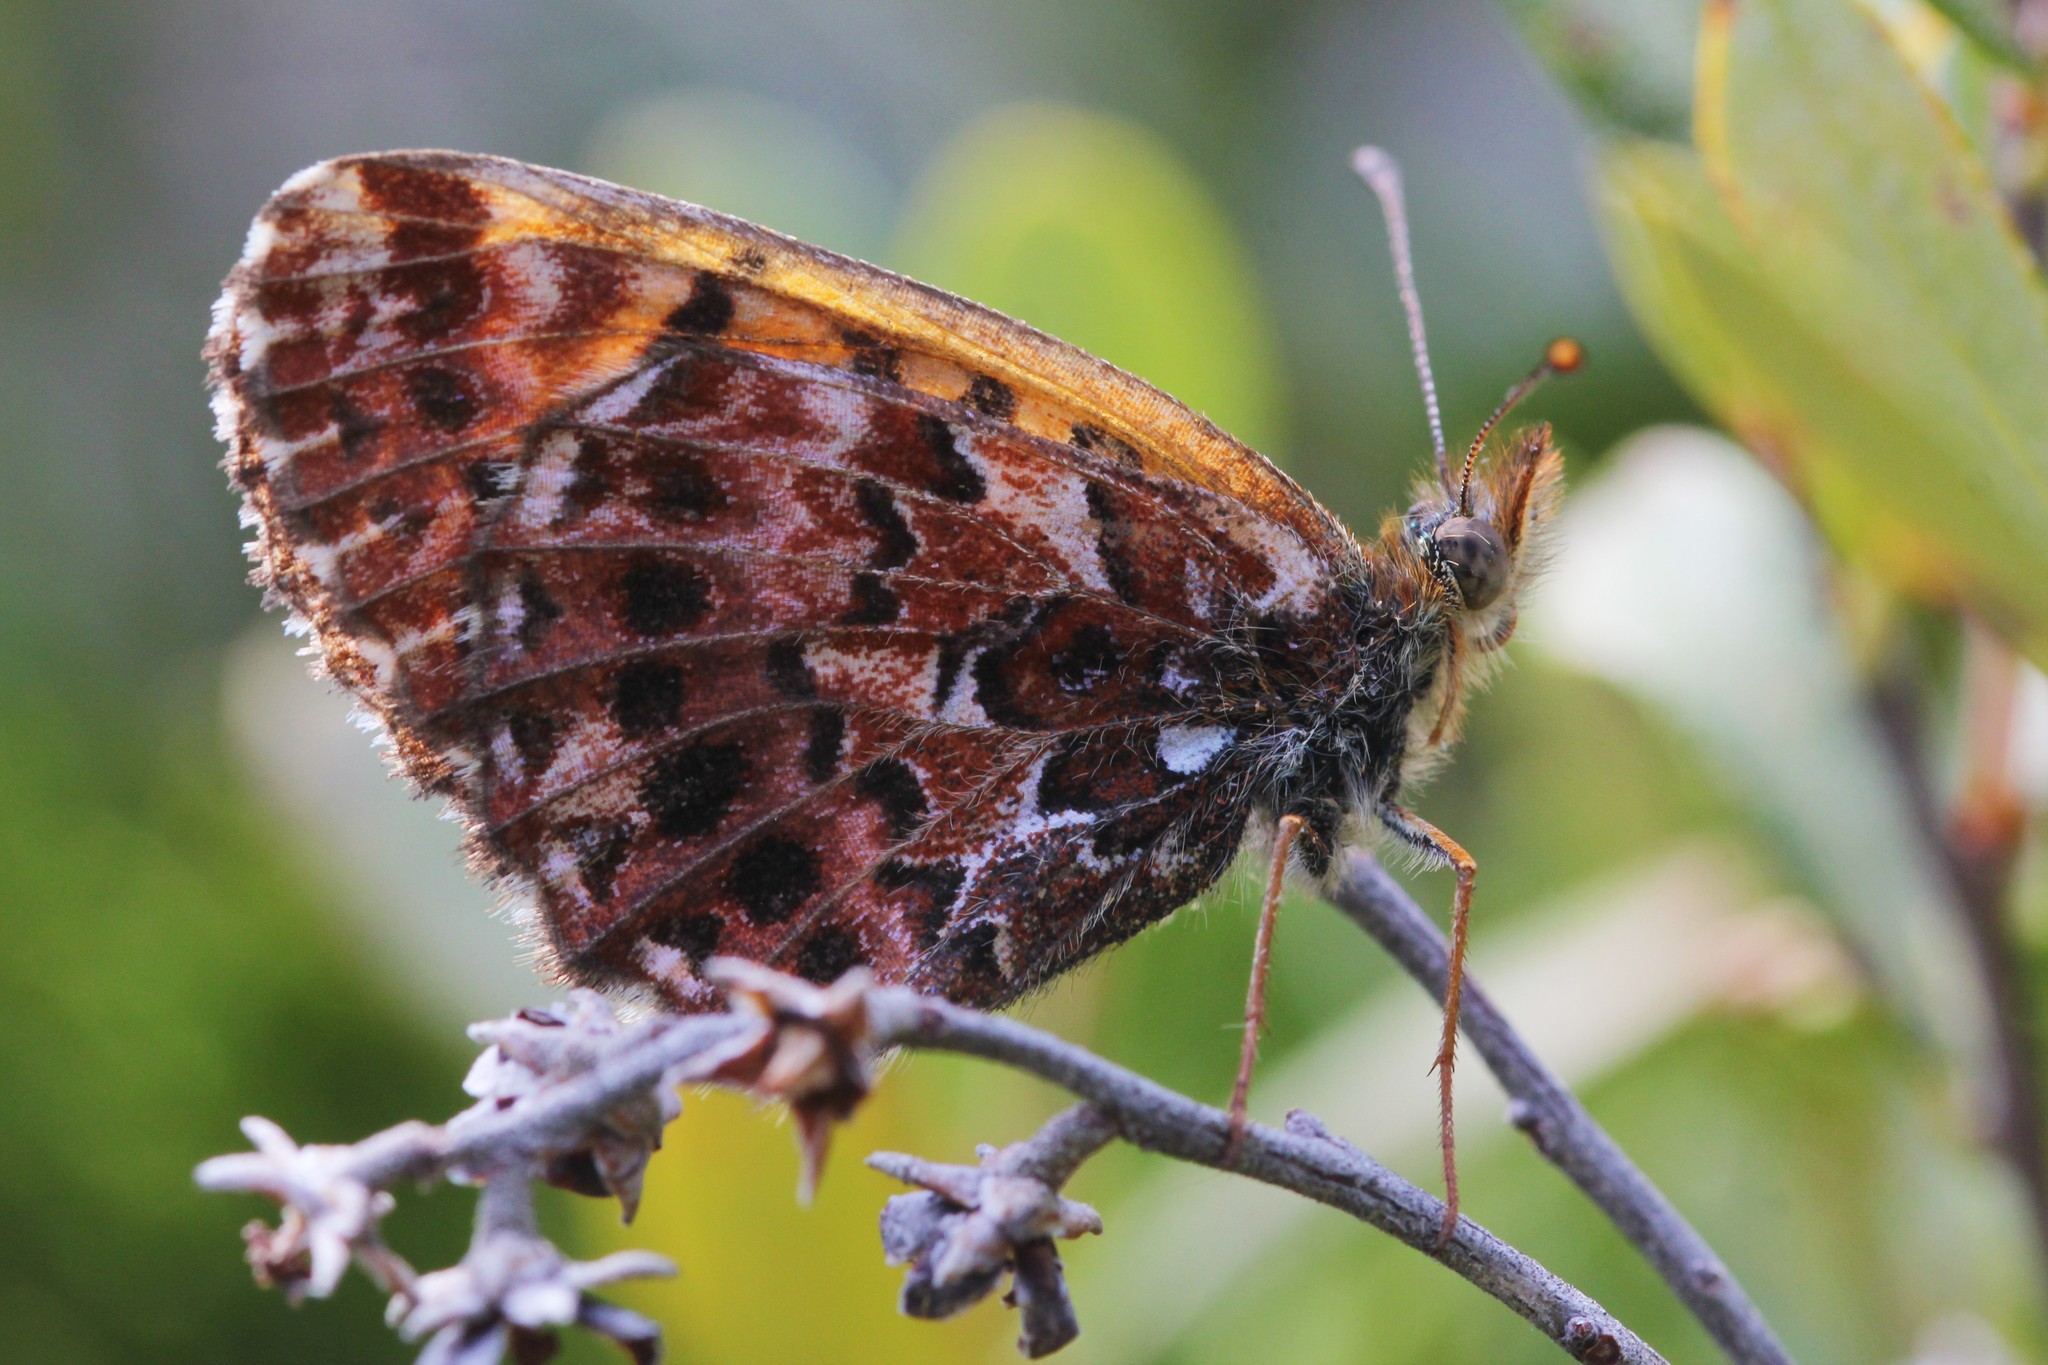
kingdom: Animalia
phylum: Arthropoda
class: Insecta
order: Lepidoptera
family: Nymphalidae
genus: Boloria
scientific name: Boloria chariclea
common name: Arctic fritillary
